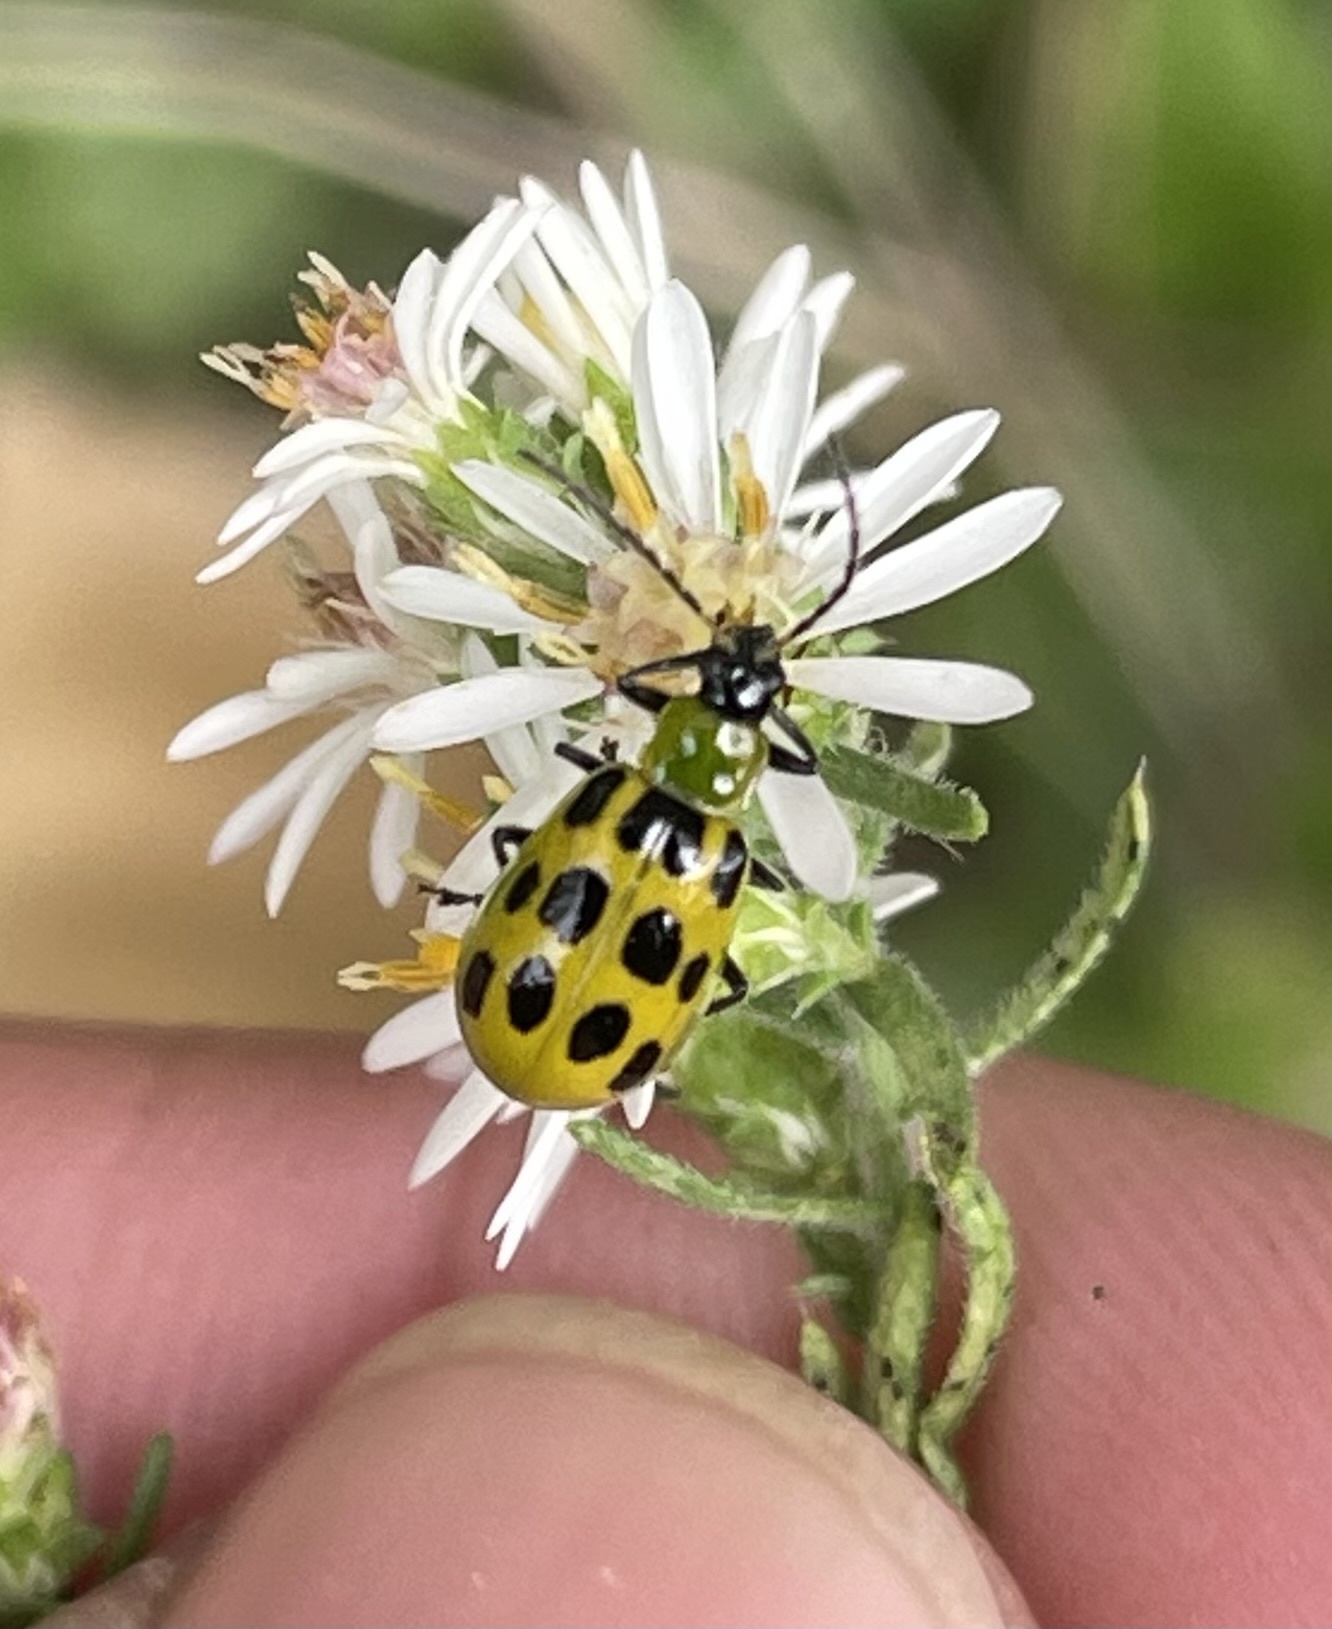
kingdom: Animalia
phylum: Arthropoda
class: Insecta
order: Coleoptera
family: Chrysomelidae
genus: Diabrotica
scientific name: Diabrotica undecimpunctata
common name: Spotted cucumber beetle
